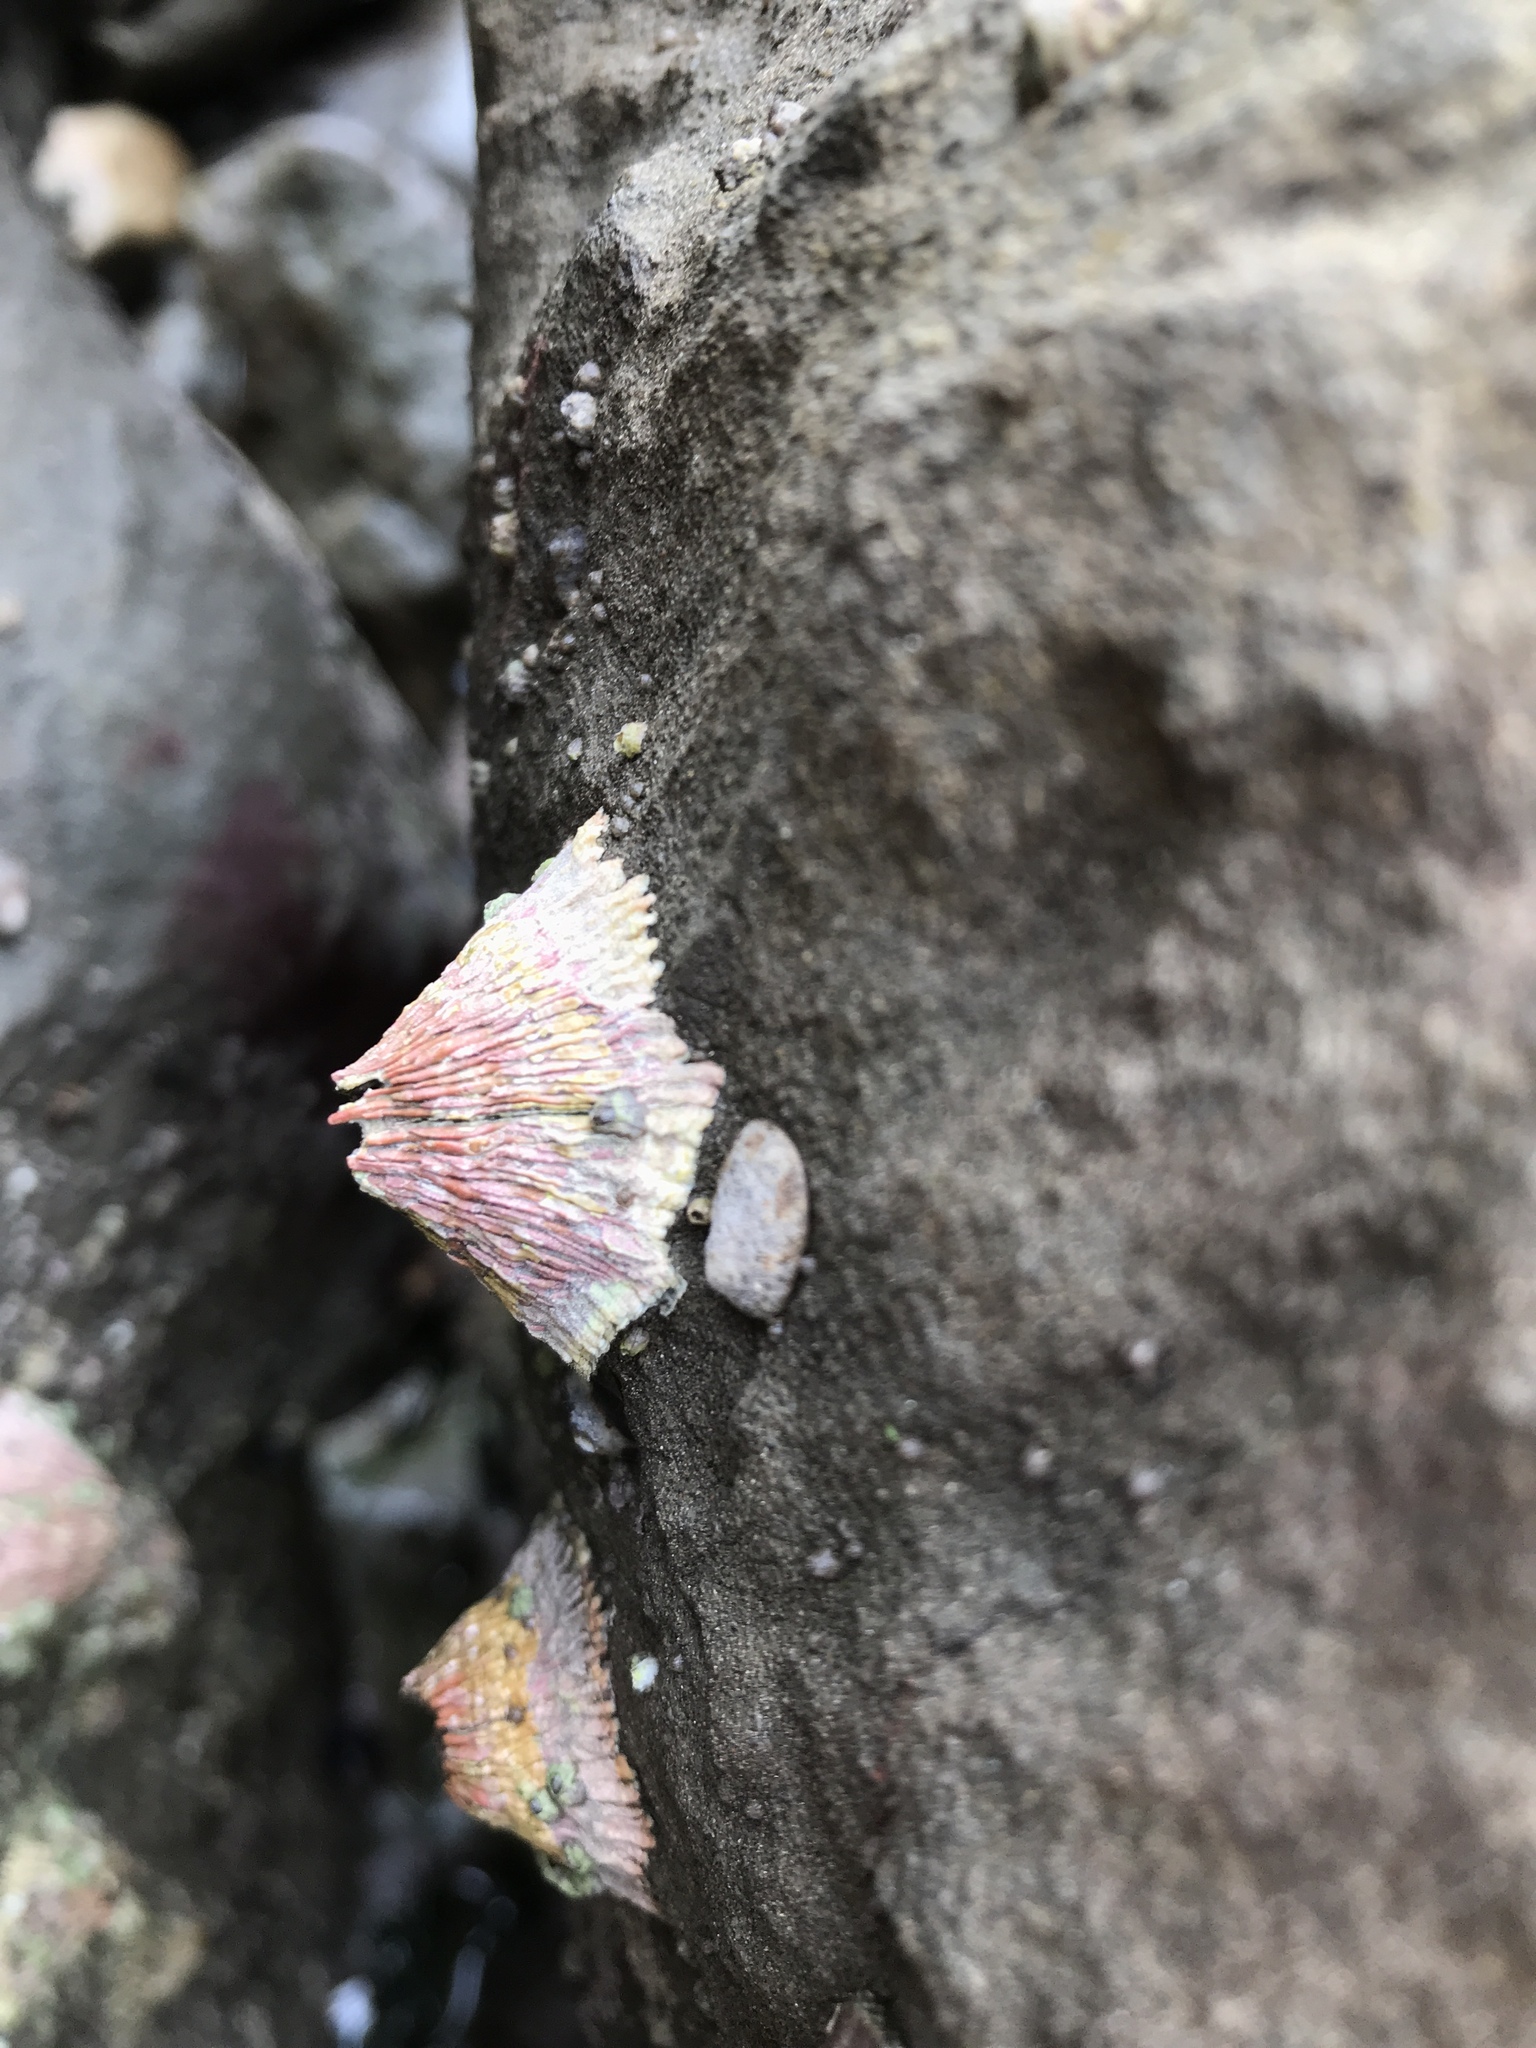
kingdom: Animalia
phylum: Arthropoda
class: Maxillopoda
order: Sessilia
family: Tetraclitidae
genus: Tetraclita
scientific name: Tetraclita rubescens
